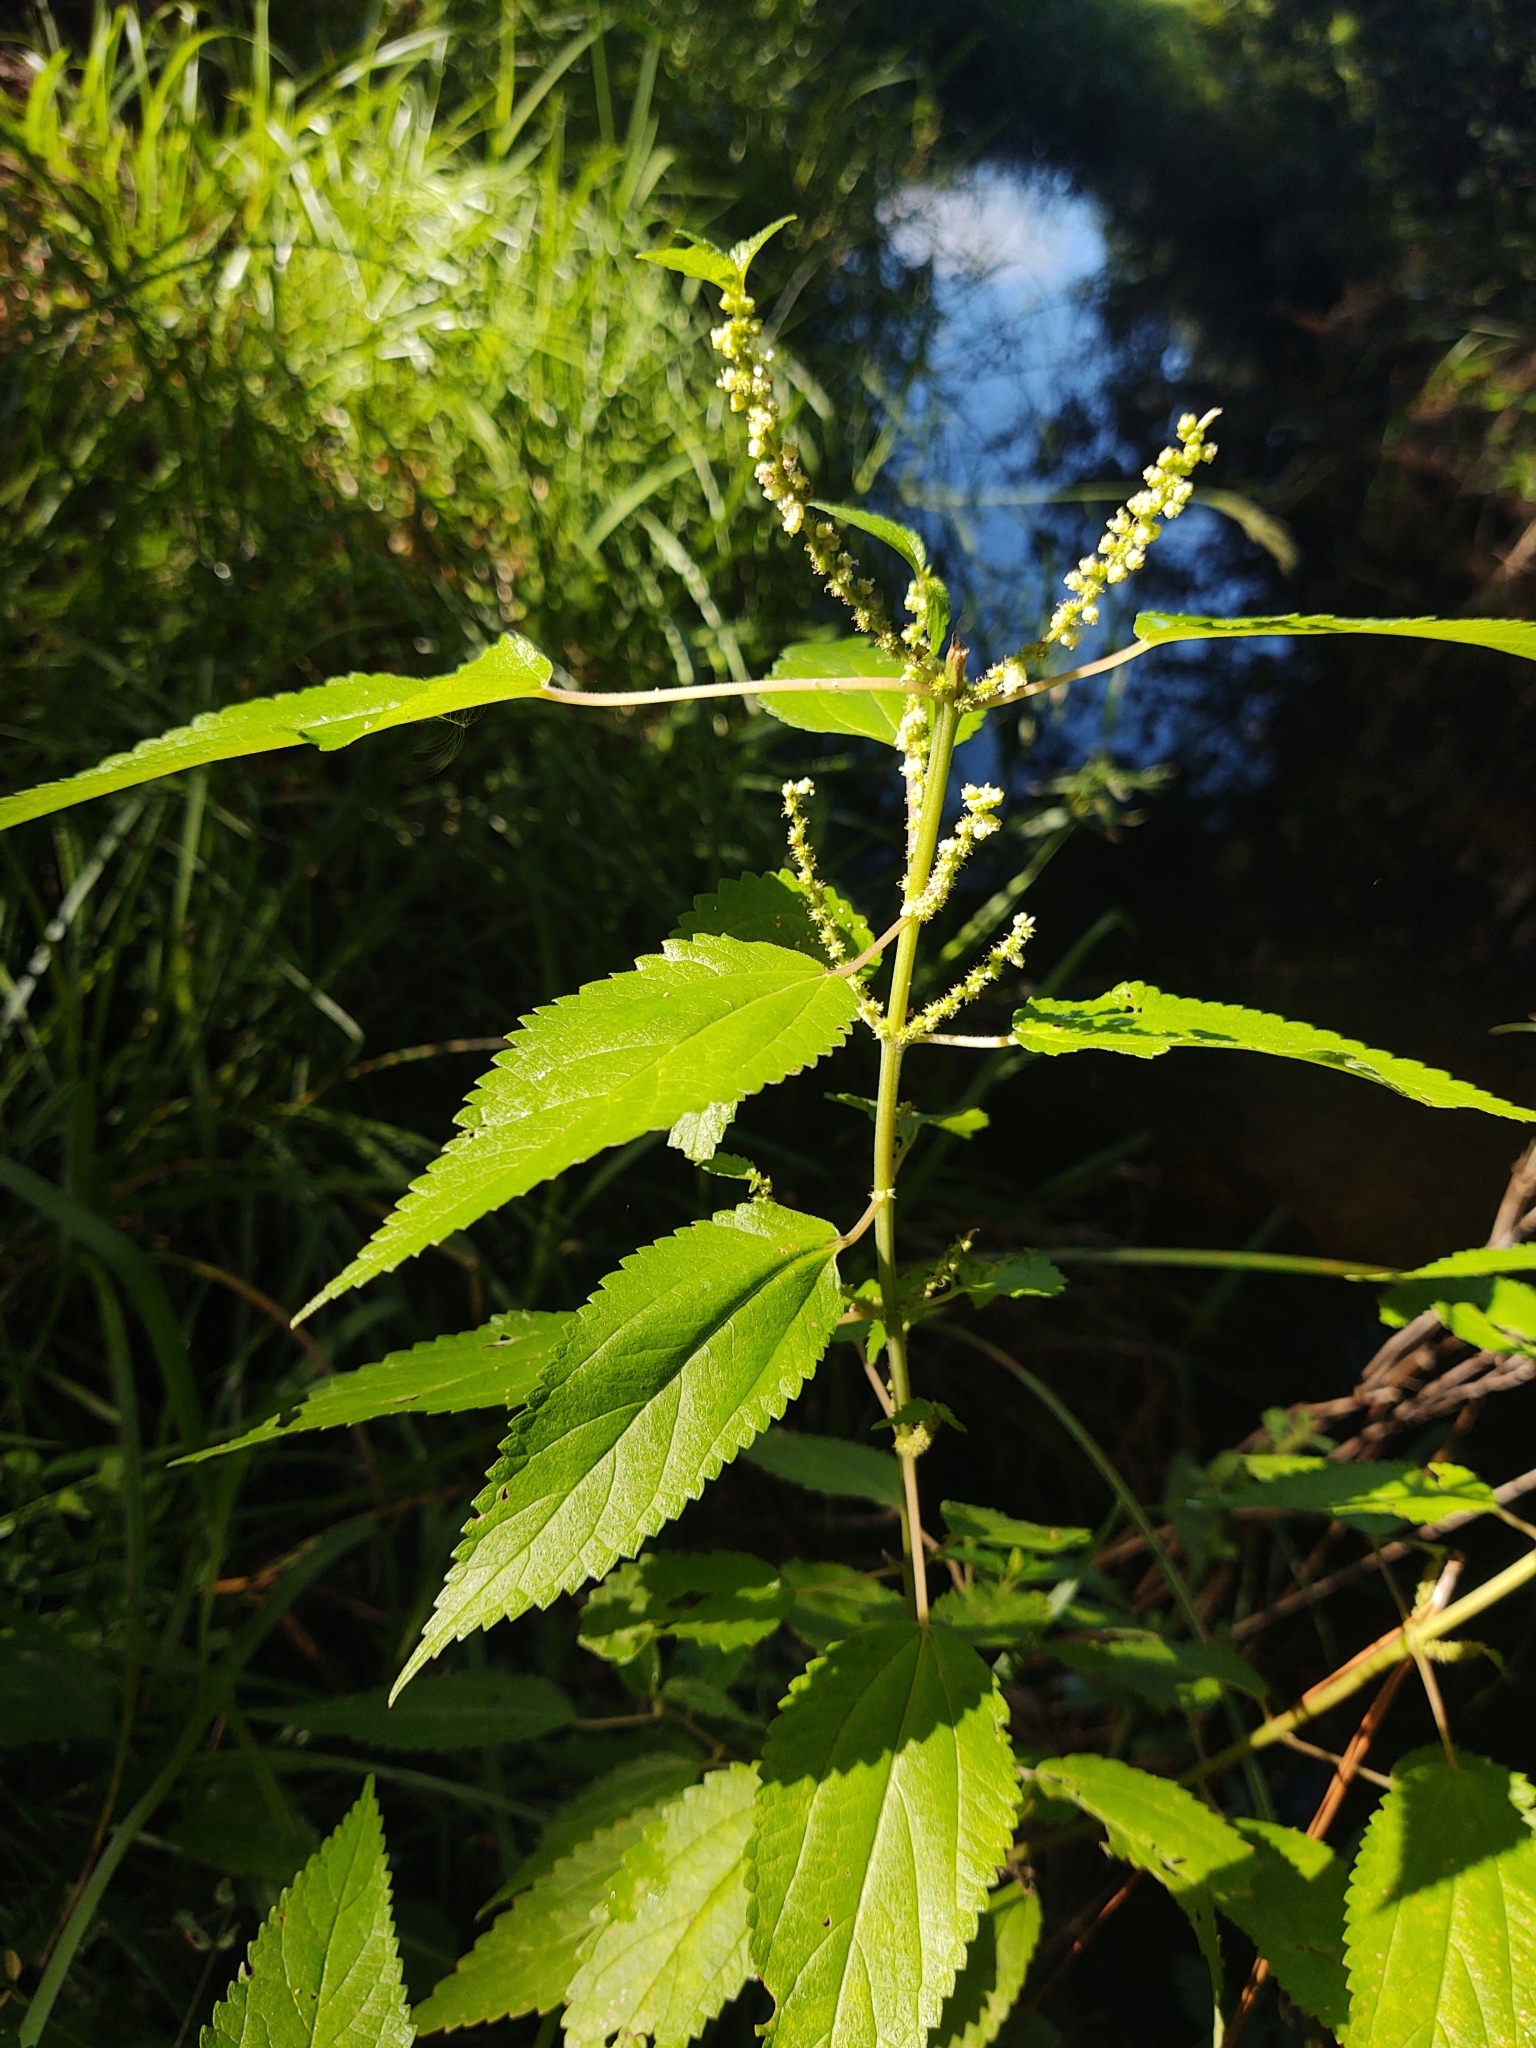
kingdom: Plantae
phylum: Tracheophyta
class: Magnoliopsida
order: Rosales
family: Urticaceae
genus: Boehmeria
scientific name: Boehmeria cylindrica
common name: Bog-hemp
